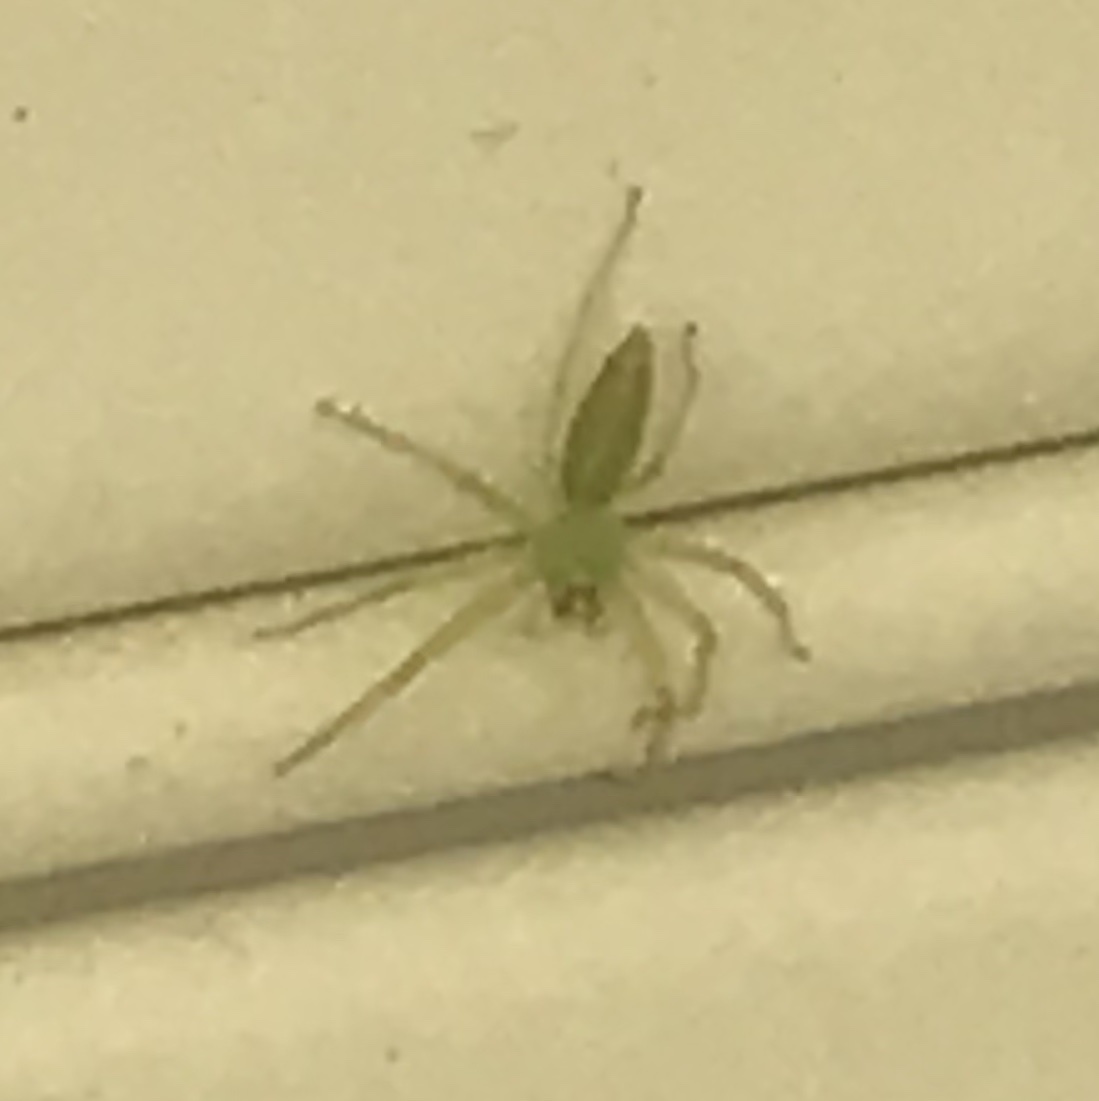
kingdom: Animalia
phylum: Arthropoda
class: Arachnida
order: Araneae
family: Salticidae
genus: Lyssomanes
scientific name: Lyssomanes viridis
